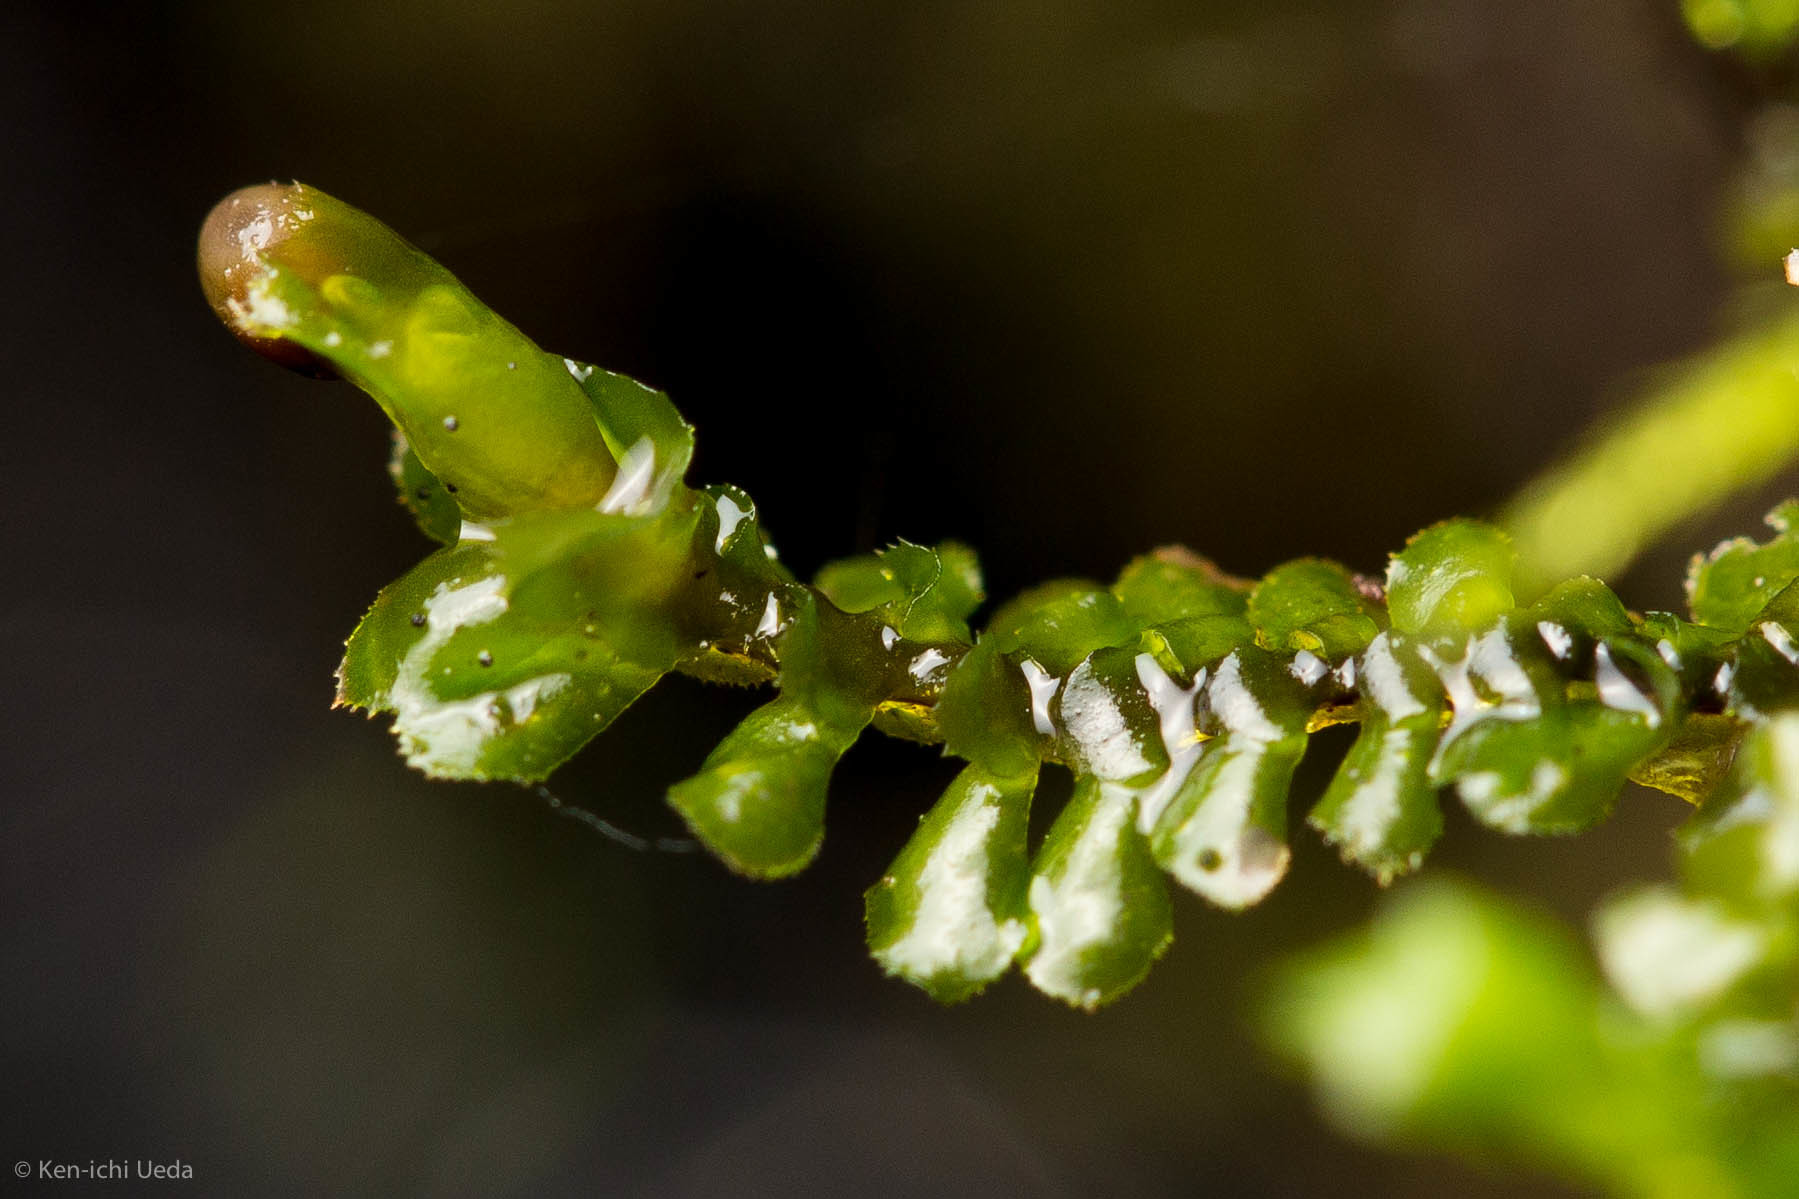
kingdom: Plantae
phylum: Marchantiophyta
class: Jungermanniopsida
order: Jungermanniales
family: Scapaniaceae
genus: Scapania
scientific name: Scapania bolanderi
